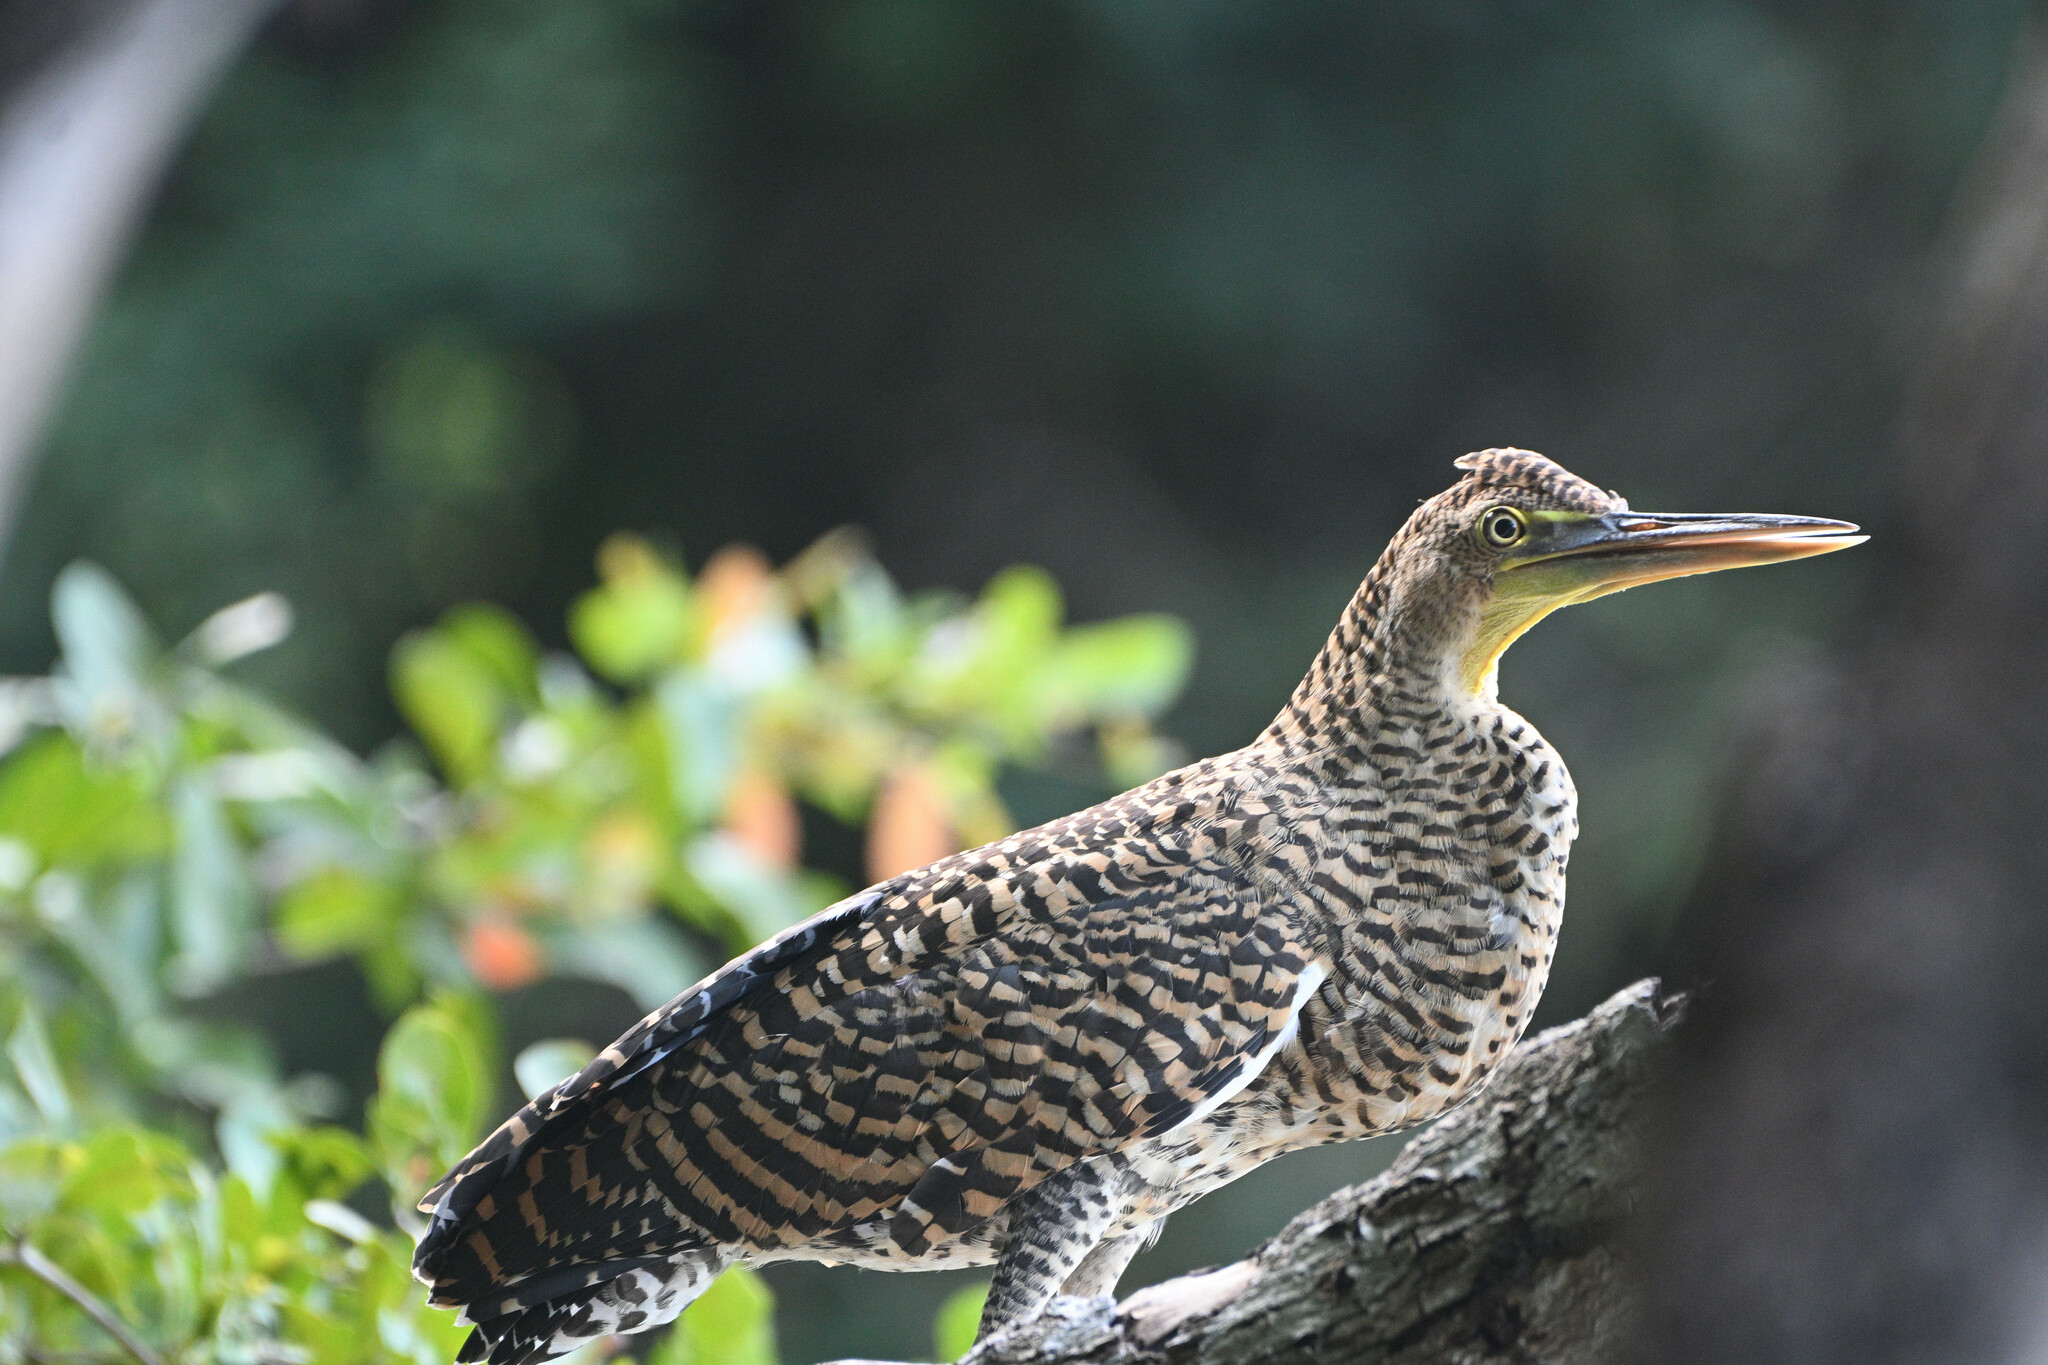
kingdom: Animalia
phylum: Chordata
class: Aves
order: Pelecaniformes
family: Ardeidae
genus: Tigrisoma
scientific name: Tigrisoma mexicanum
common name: Bare-throated tiger-heron
